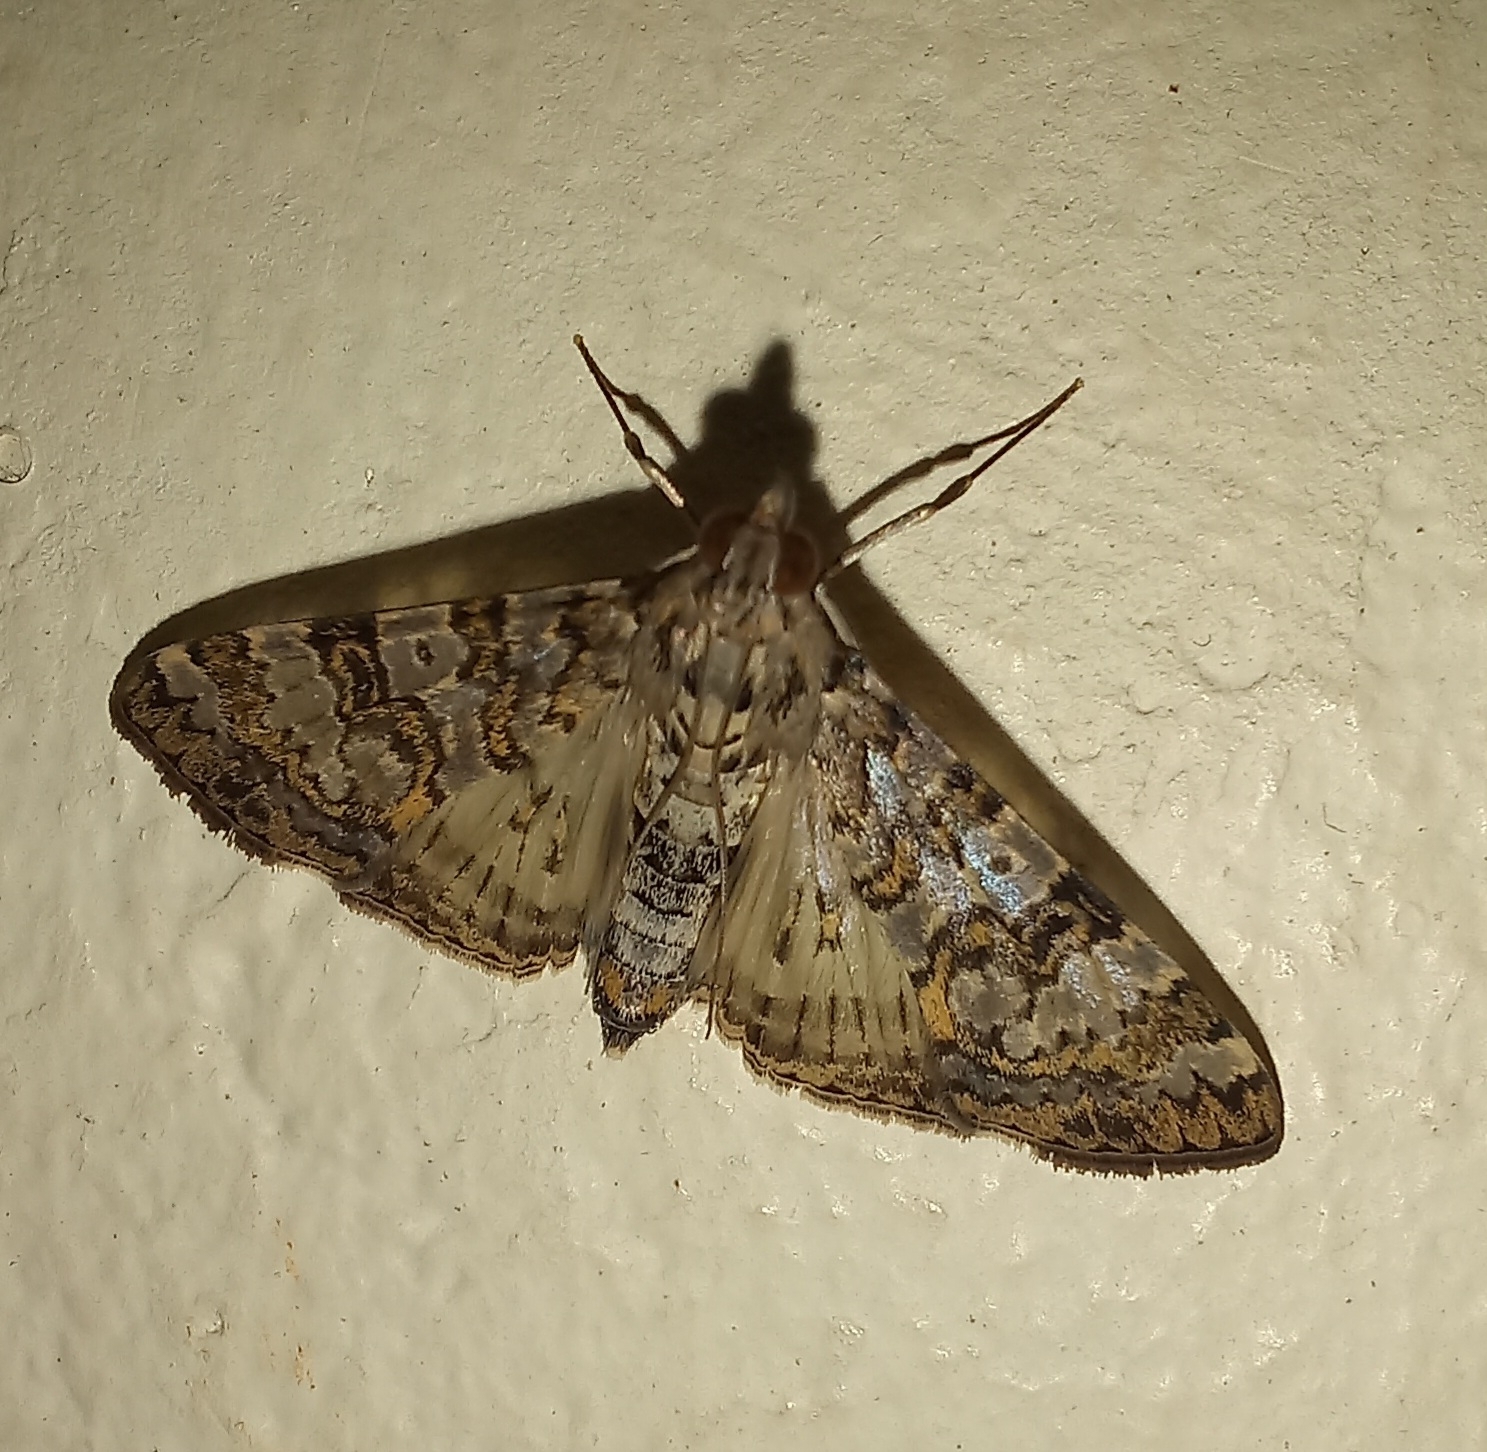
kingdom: Animalia
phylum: Arthropoda
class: Insecta
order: Lepidoptera
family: Crambidae
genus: Dysallacta
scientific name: Dysallacta negatalis
